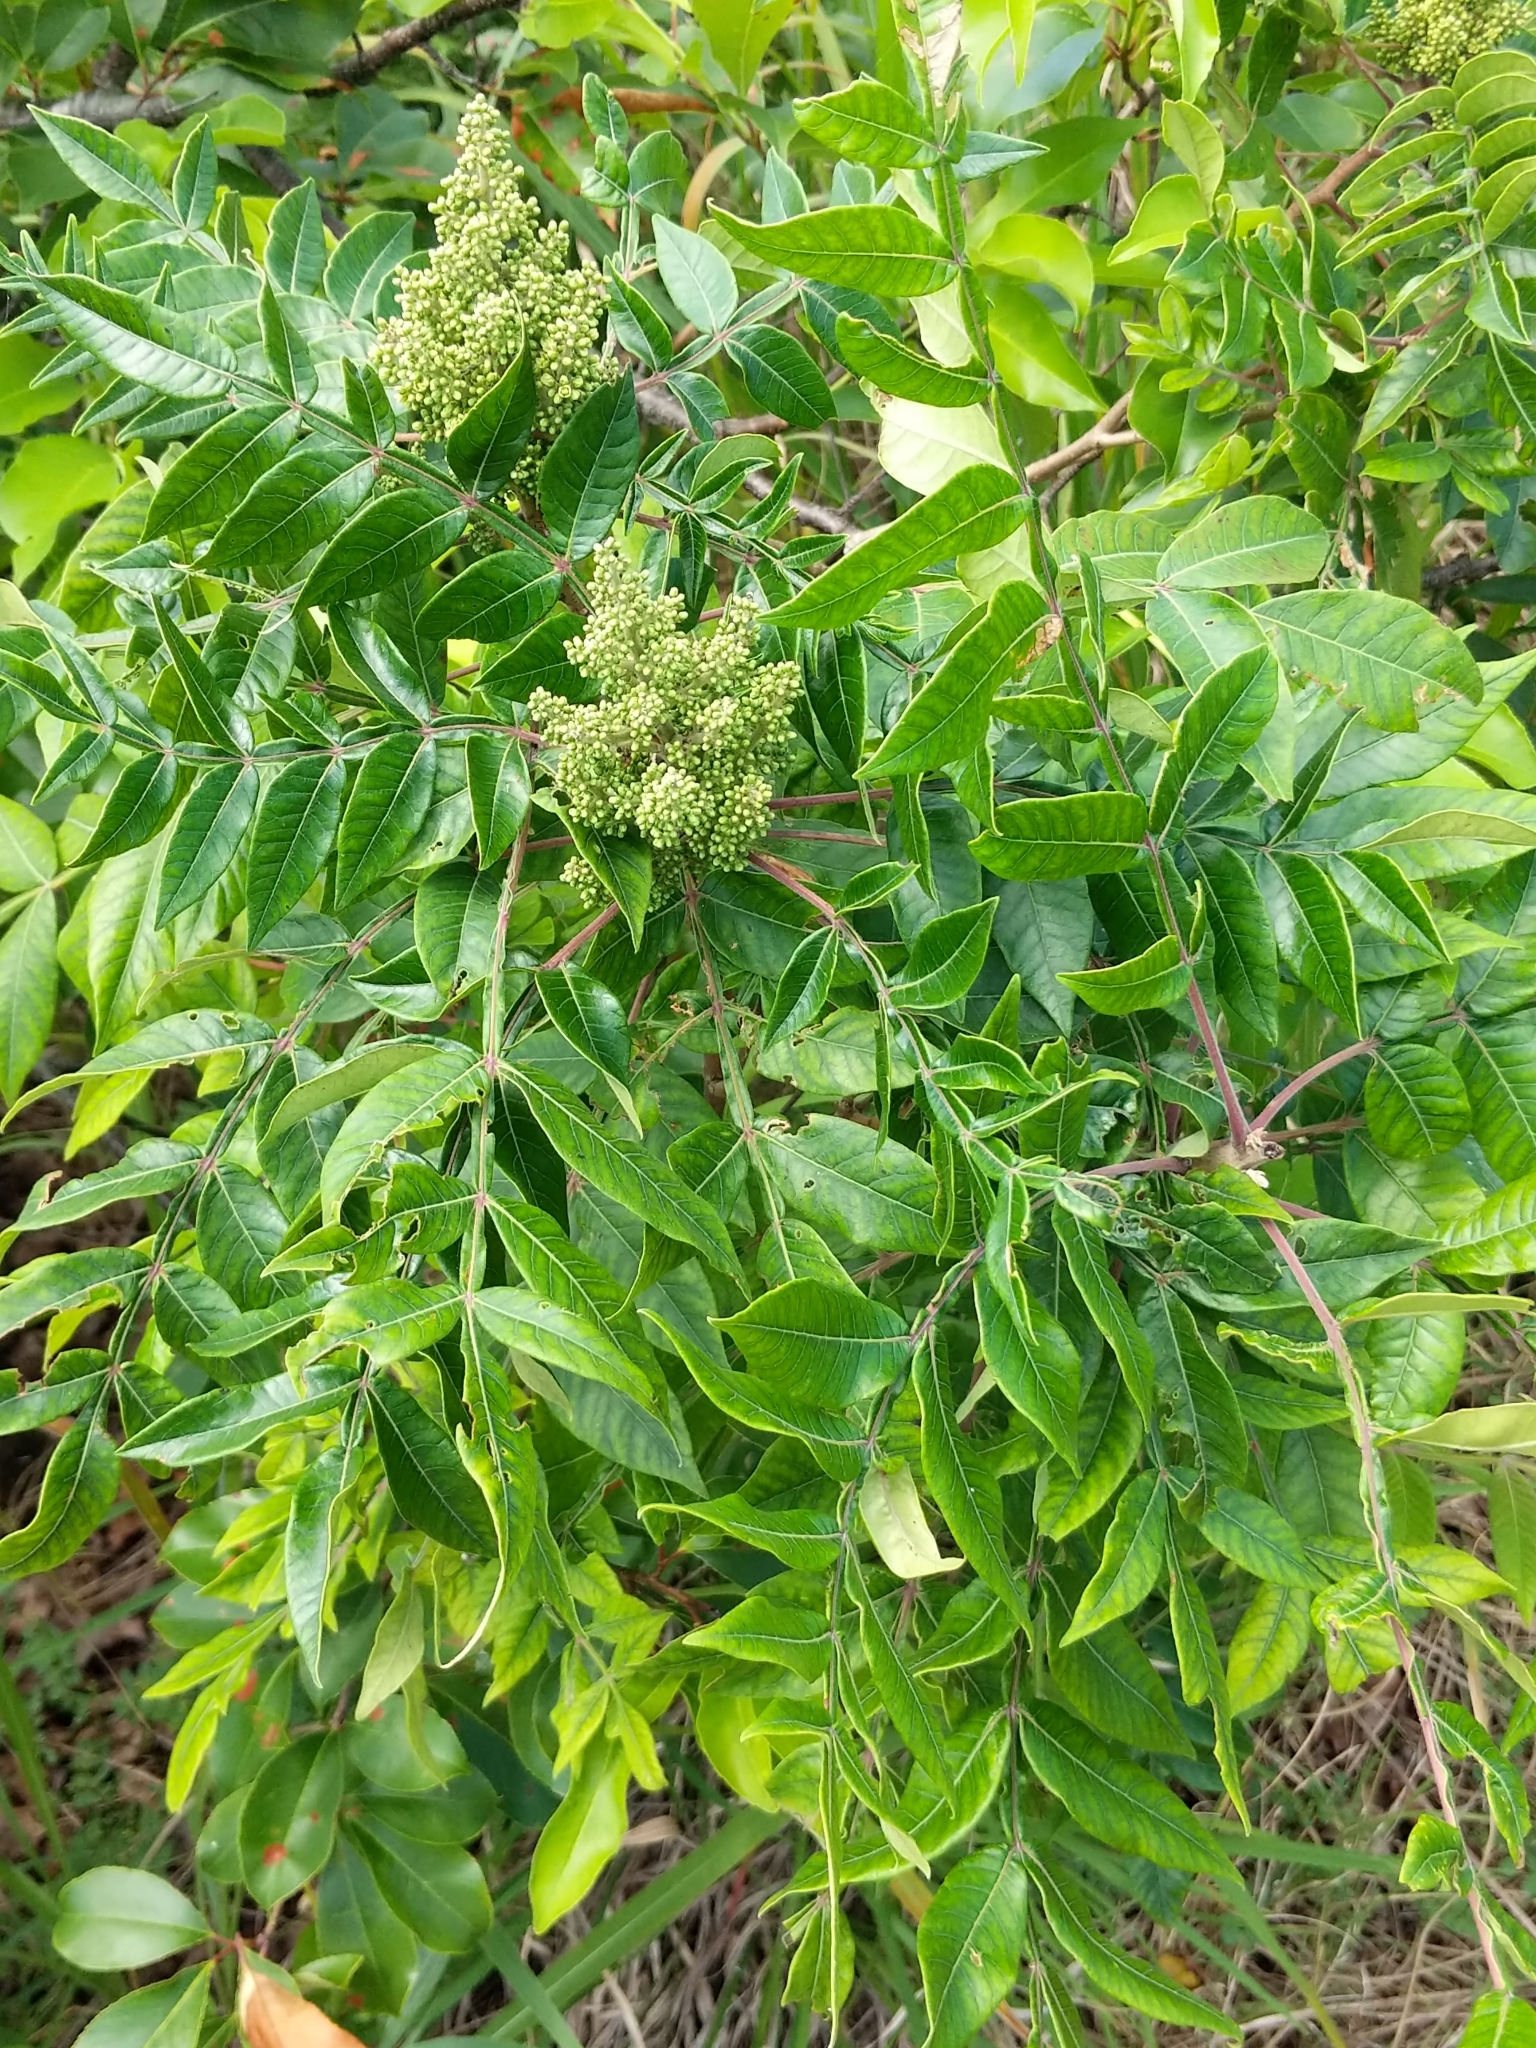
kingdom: Plantae
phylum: Tracheophyta
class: Magnoliopsida
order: Sapindales
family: Anacardiaceae
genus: Rhus
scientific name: Rhus copallina
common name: Shining sumac
